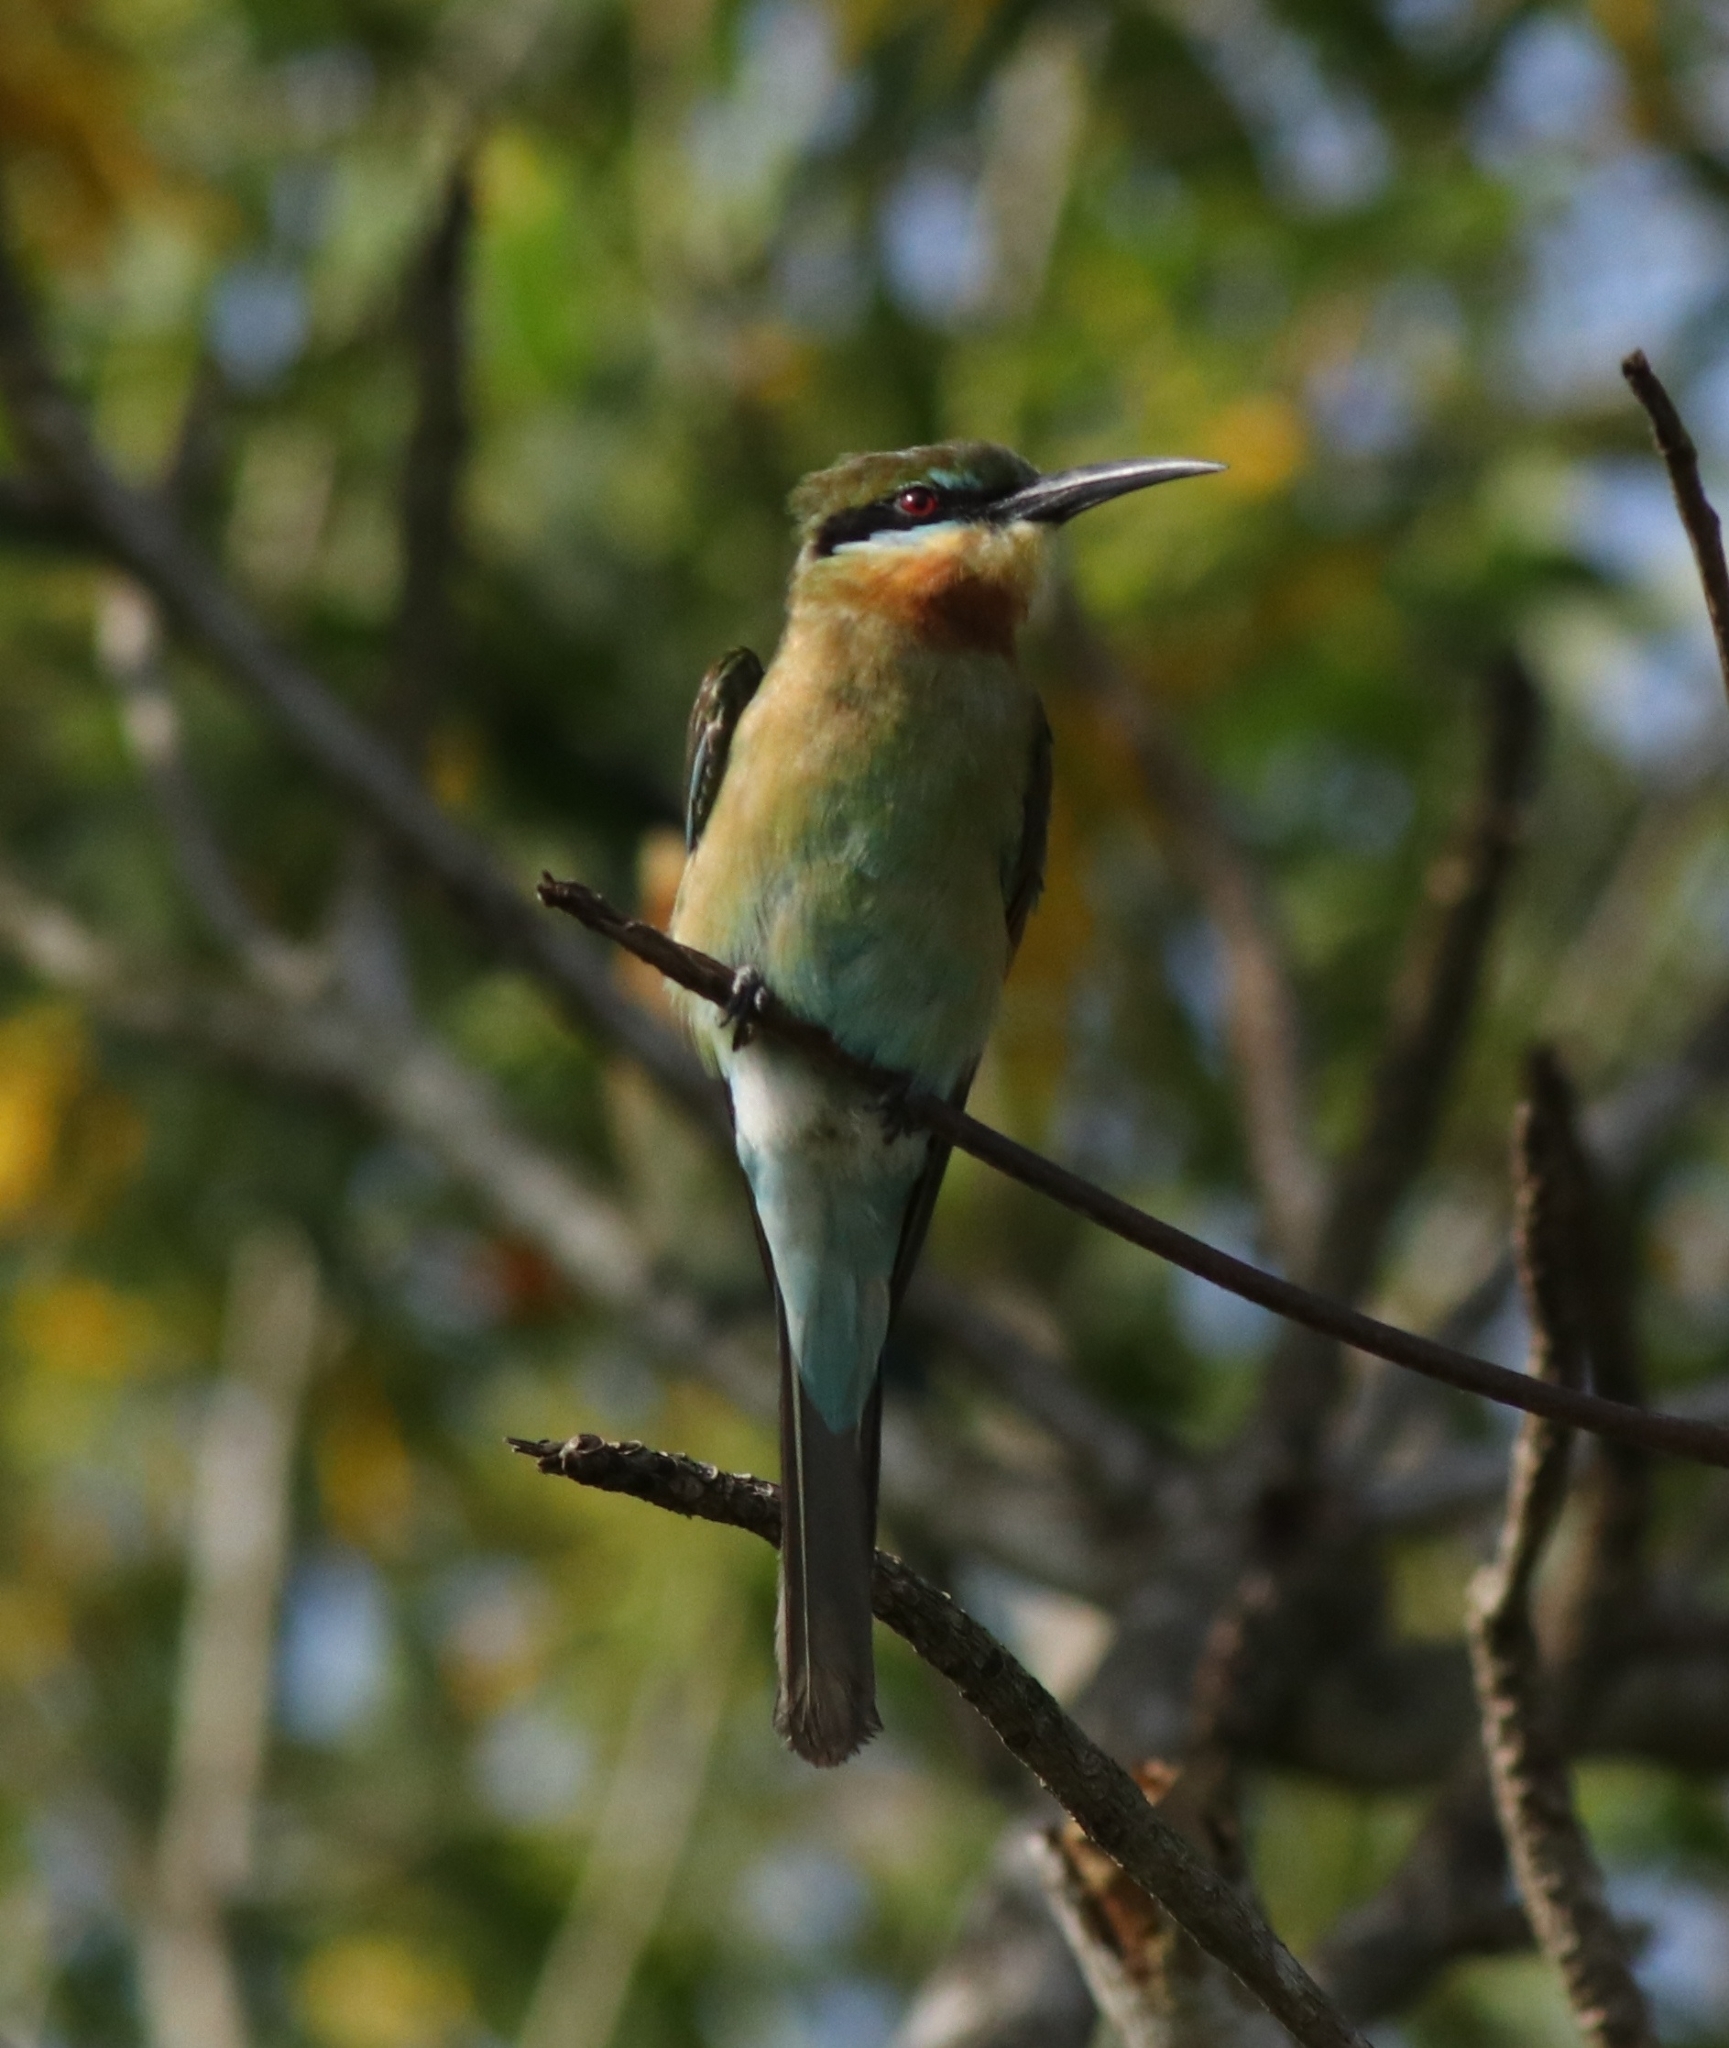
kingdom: Animalia
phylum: Chordata
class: Aves
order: Coraciiformes
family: Meropidae
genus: Merops
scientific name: Merops philippinus
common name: Blue-tailed bee-eater
